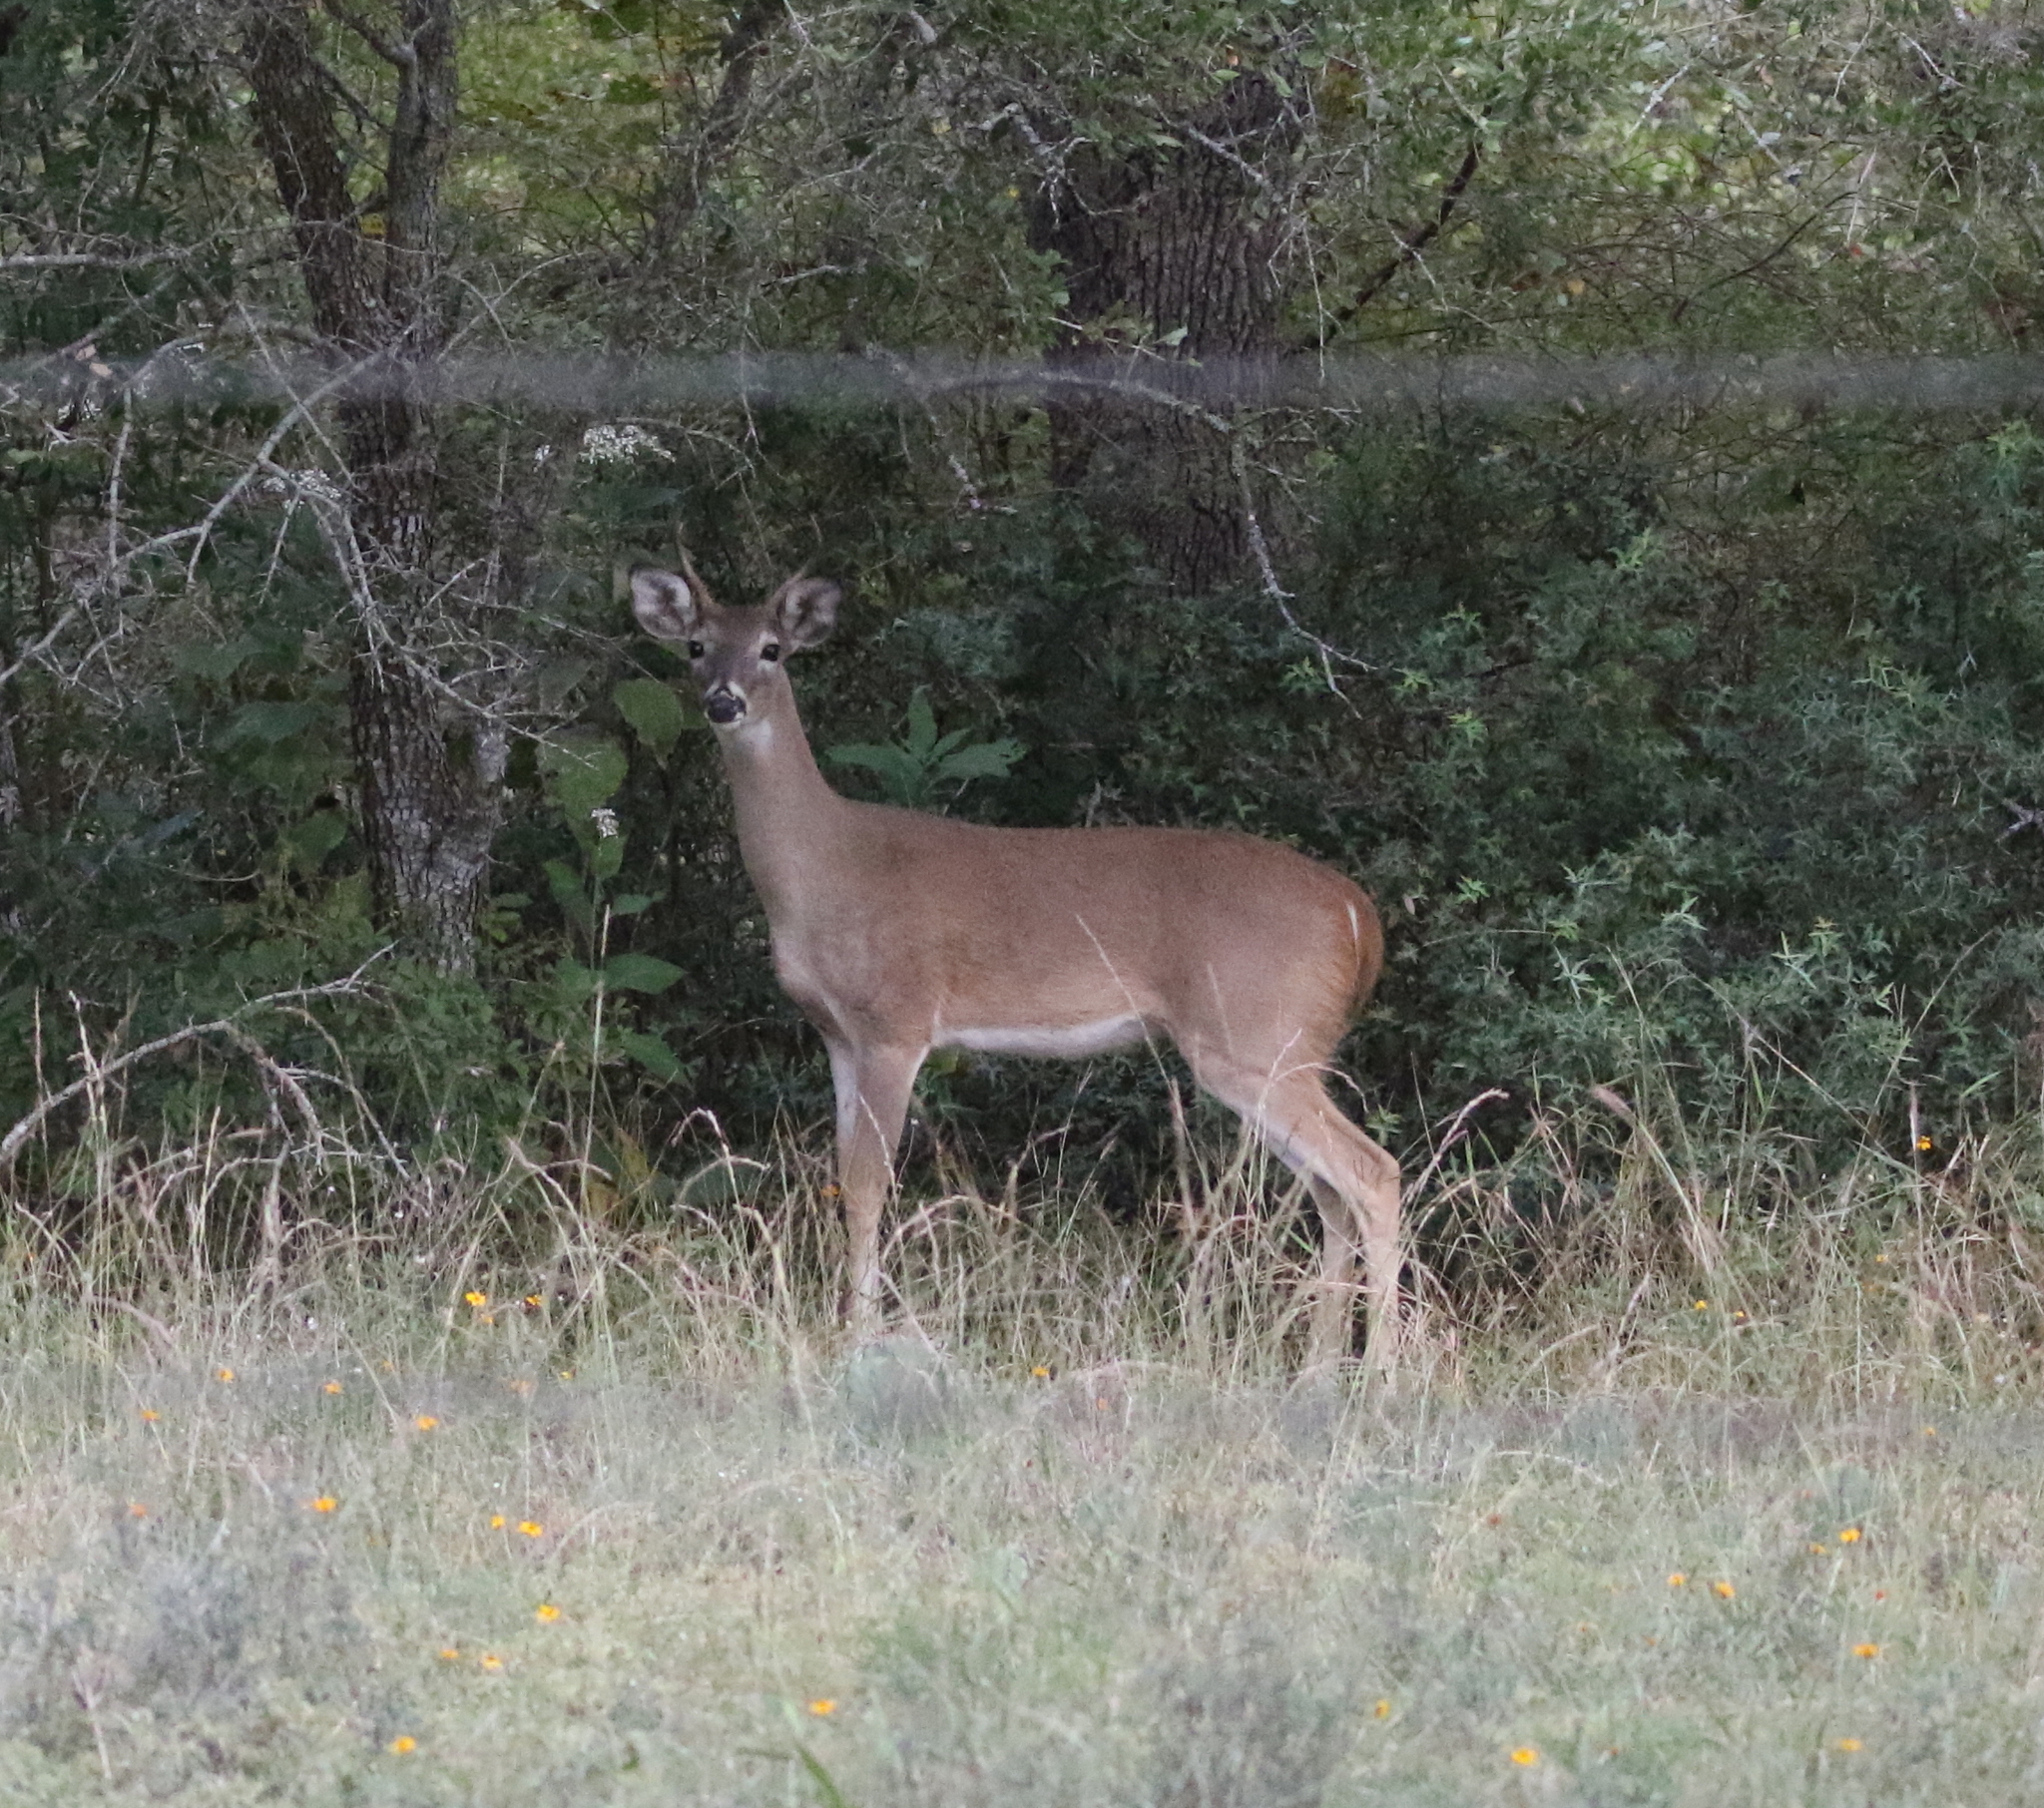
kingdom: Animalia
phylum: Chordata
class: Mammalia
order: Artiodactyla
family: Cervidae
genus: Odocoileus
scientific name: Odocoileus virginianus
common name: White-tailed deer
